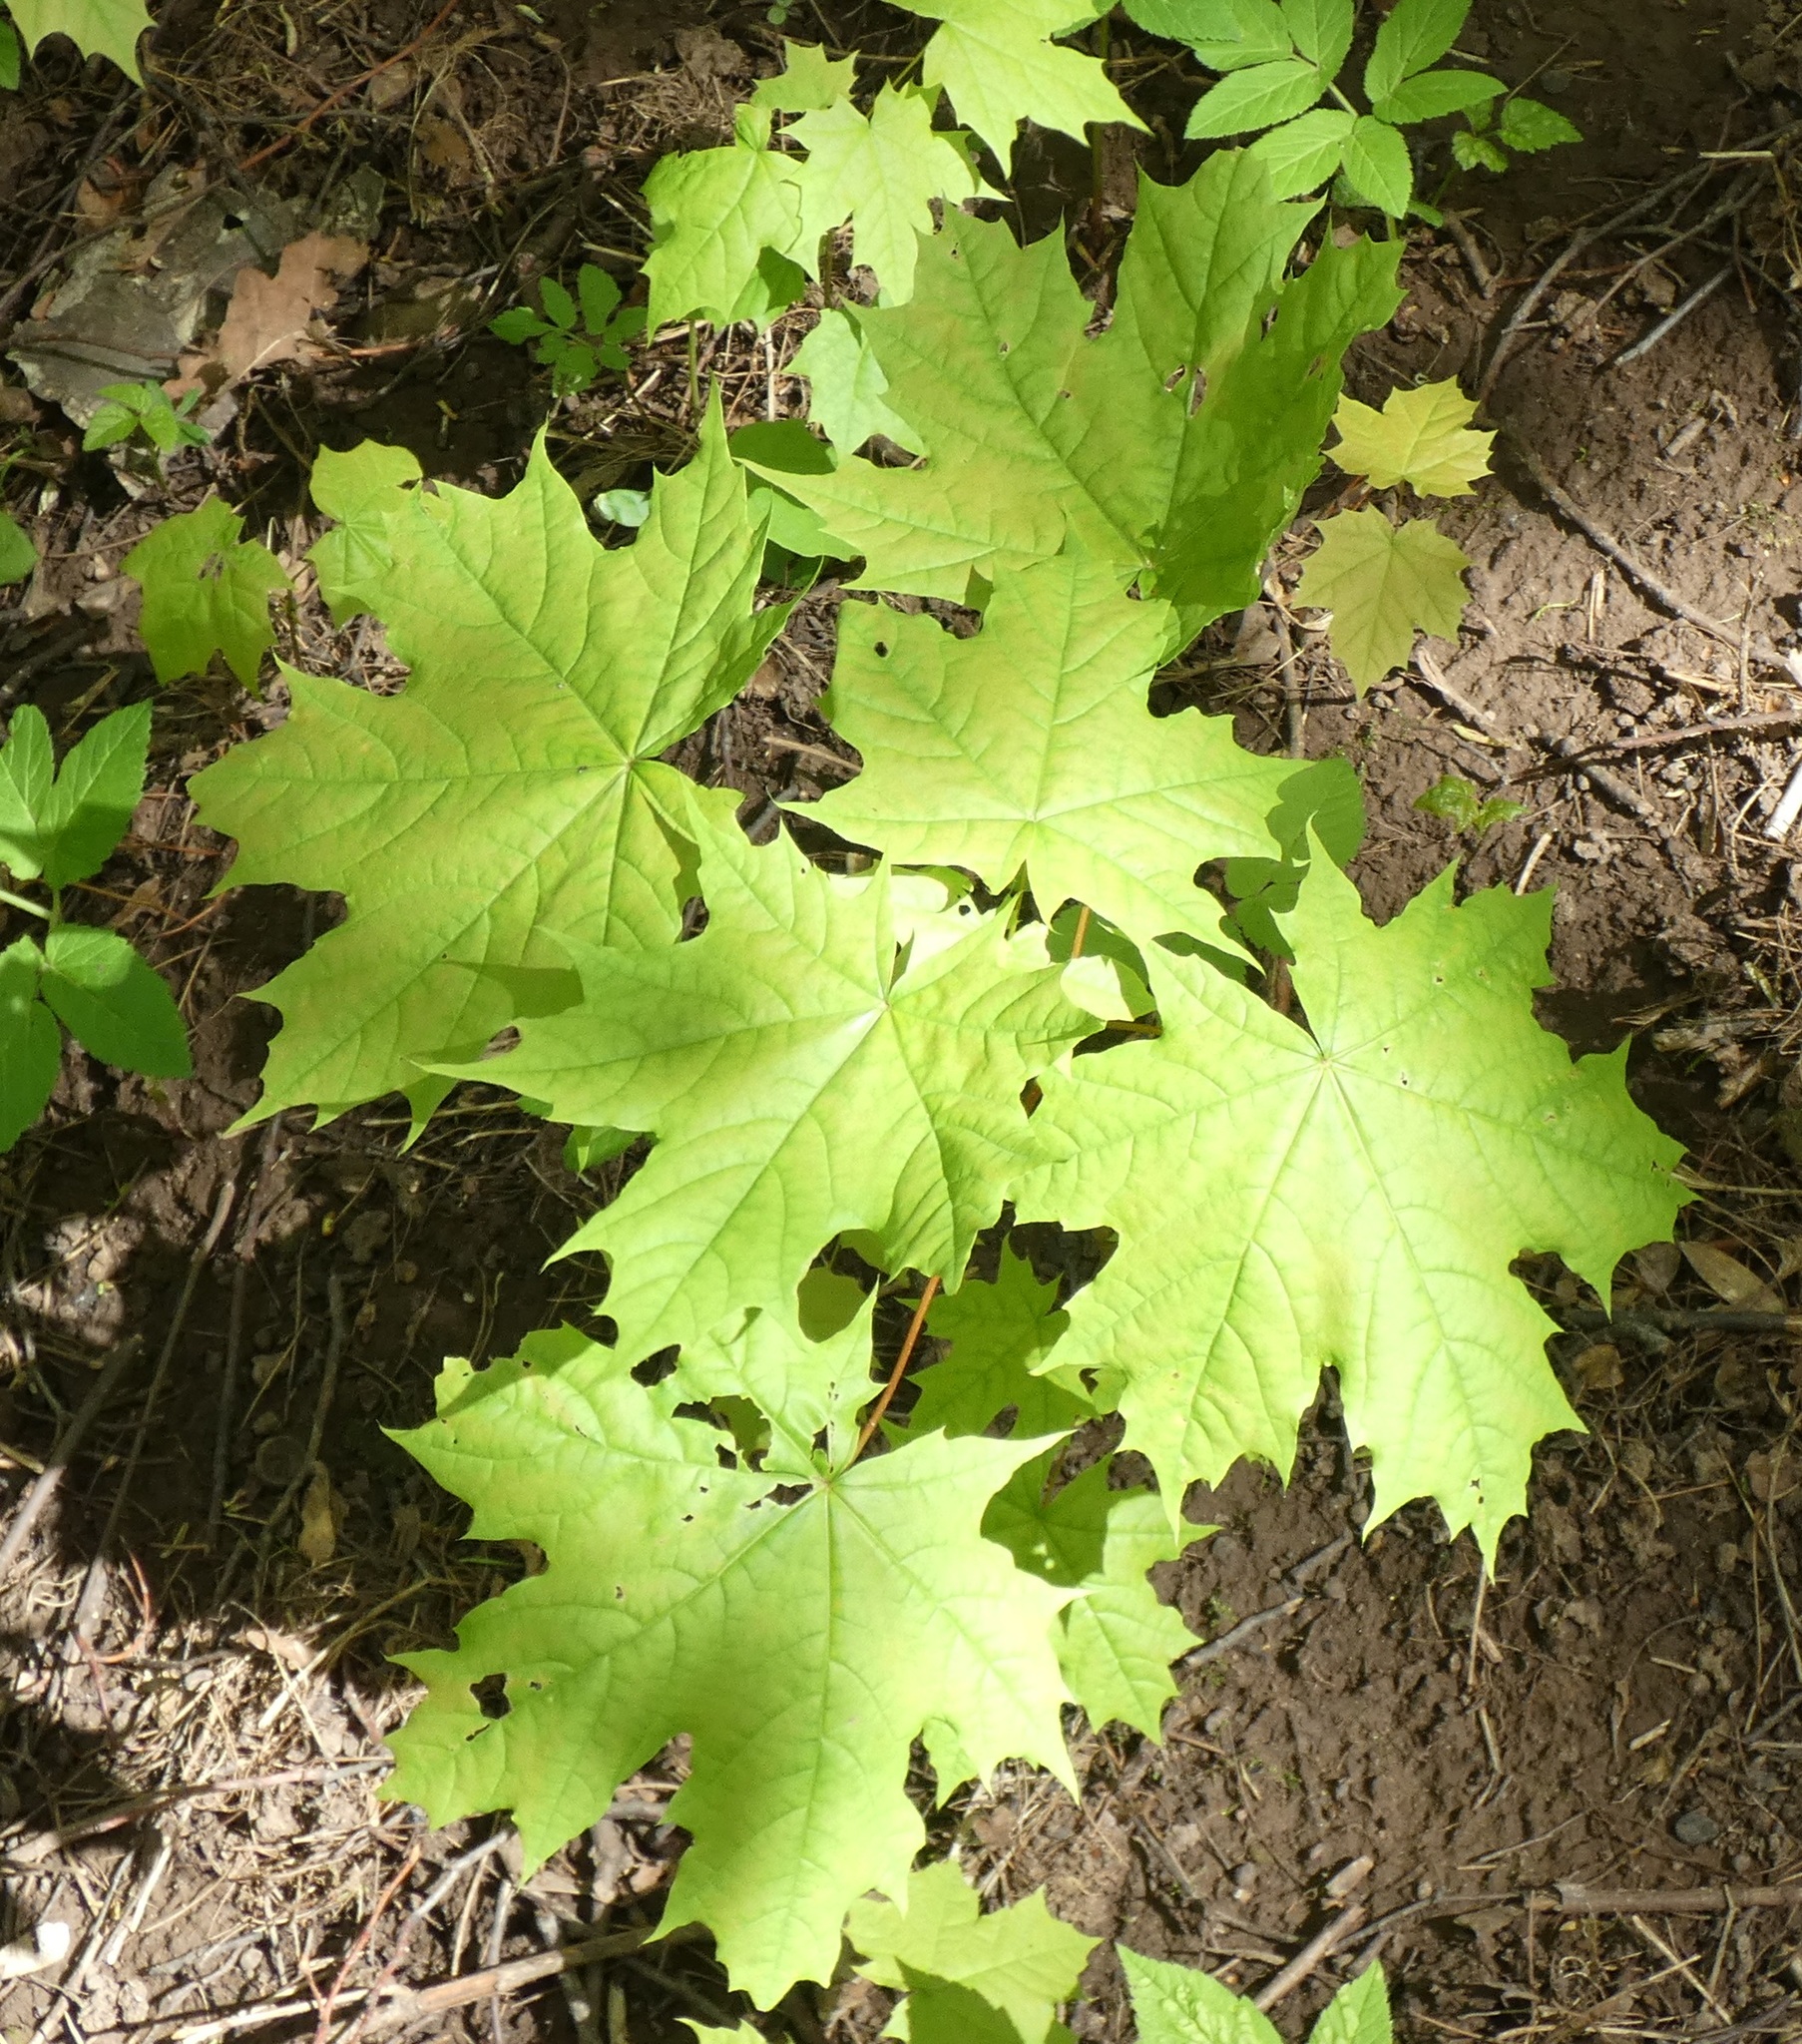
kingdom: Plantae
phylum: Tracheophyta
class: Magnoliopsida
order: Sapindales
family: Sapindaceae
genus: Acer
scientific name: Acer platanoides
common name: Norway maple
